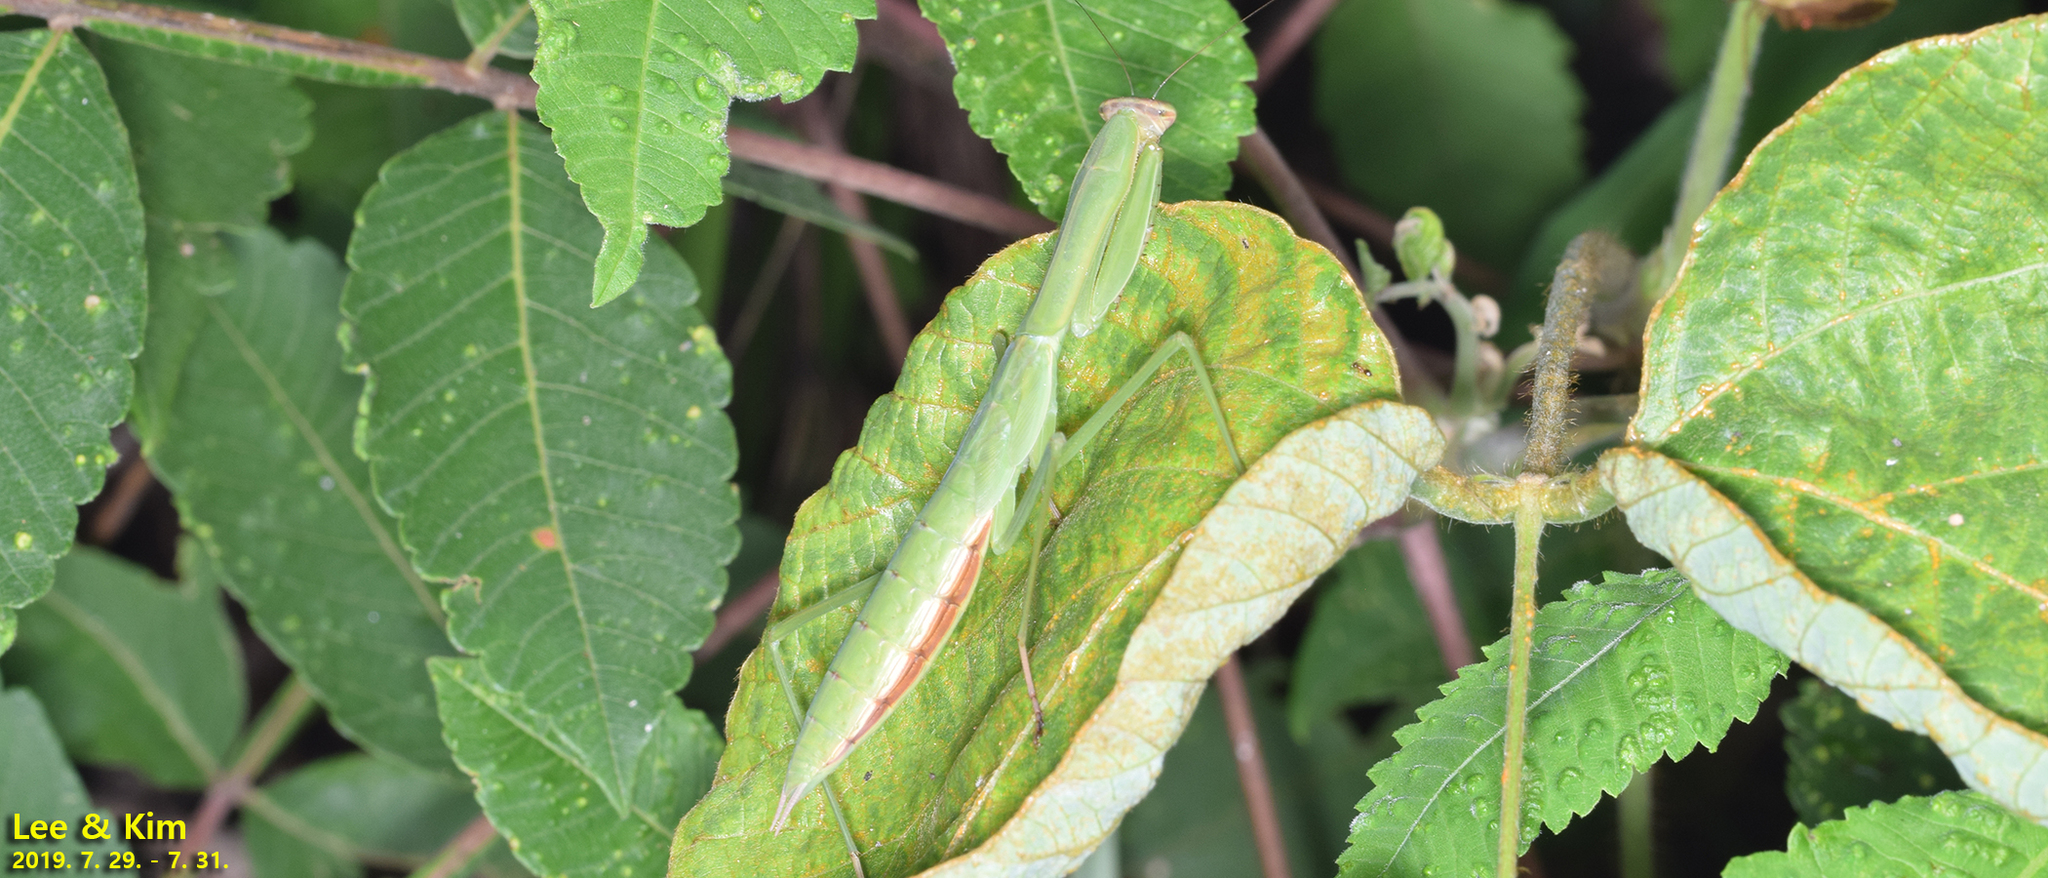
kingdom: Animalia
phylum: Arthropoda
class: Insecta
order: Mantodea
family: Mantidae
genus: Tenodera
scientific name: Tenodera angustipennis
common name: Asian mantis
